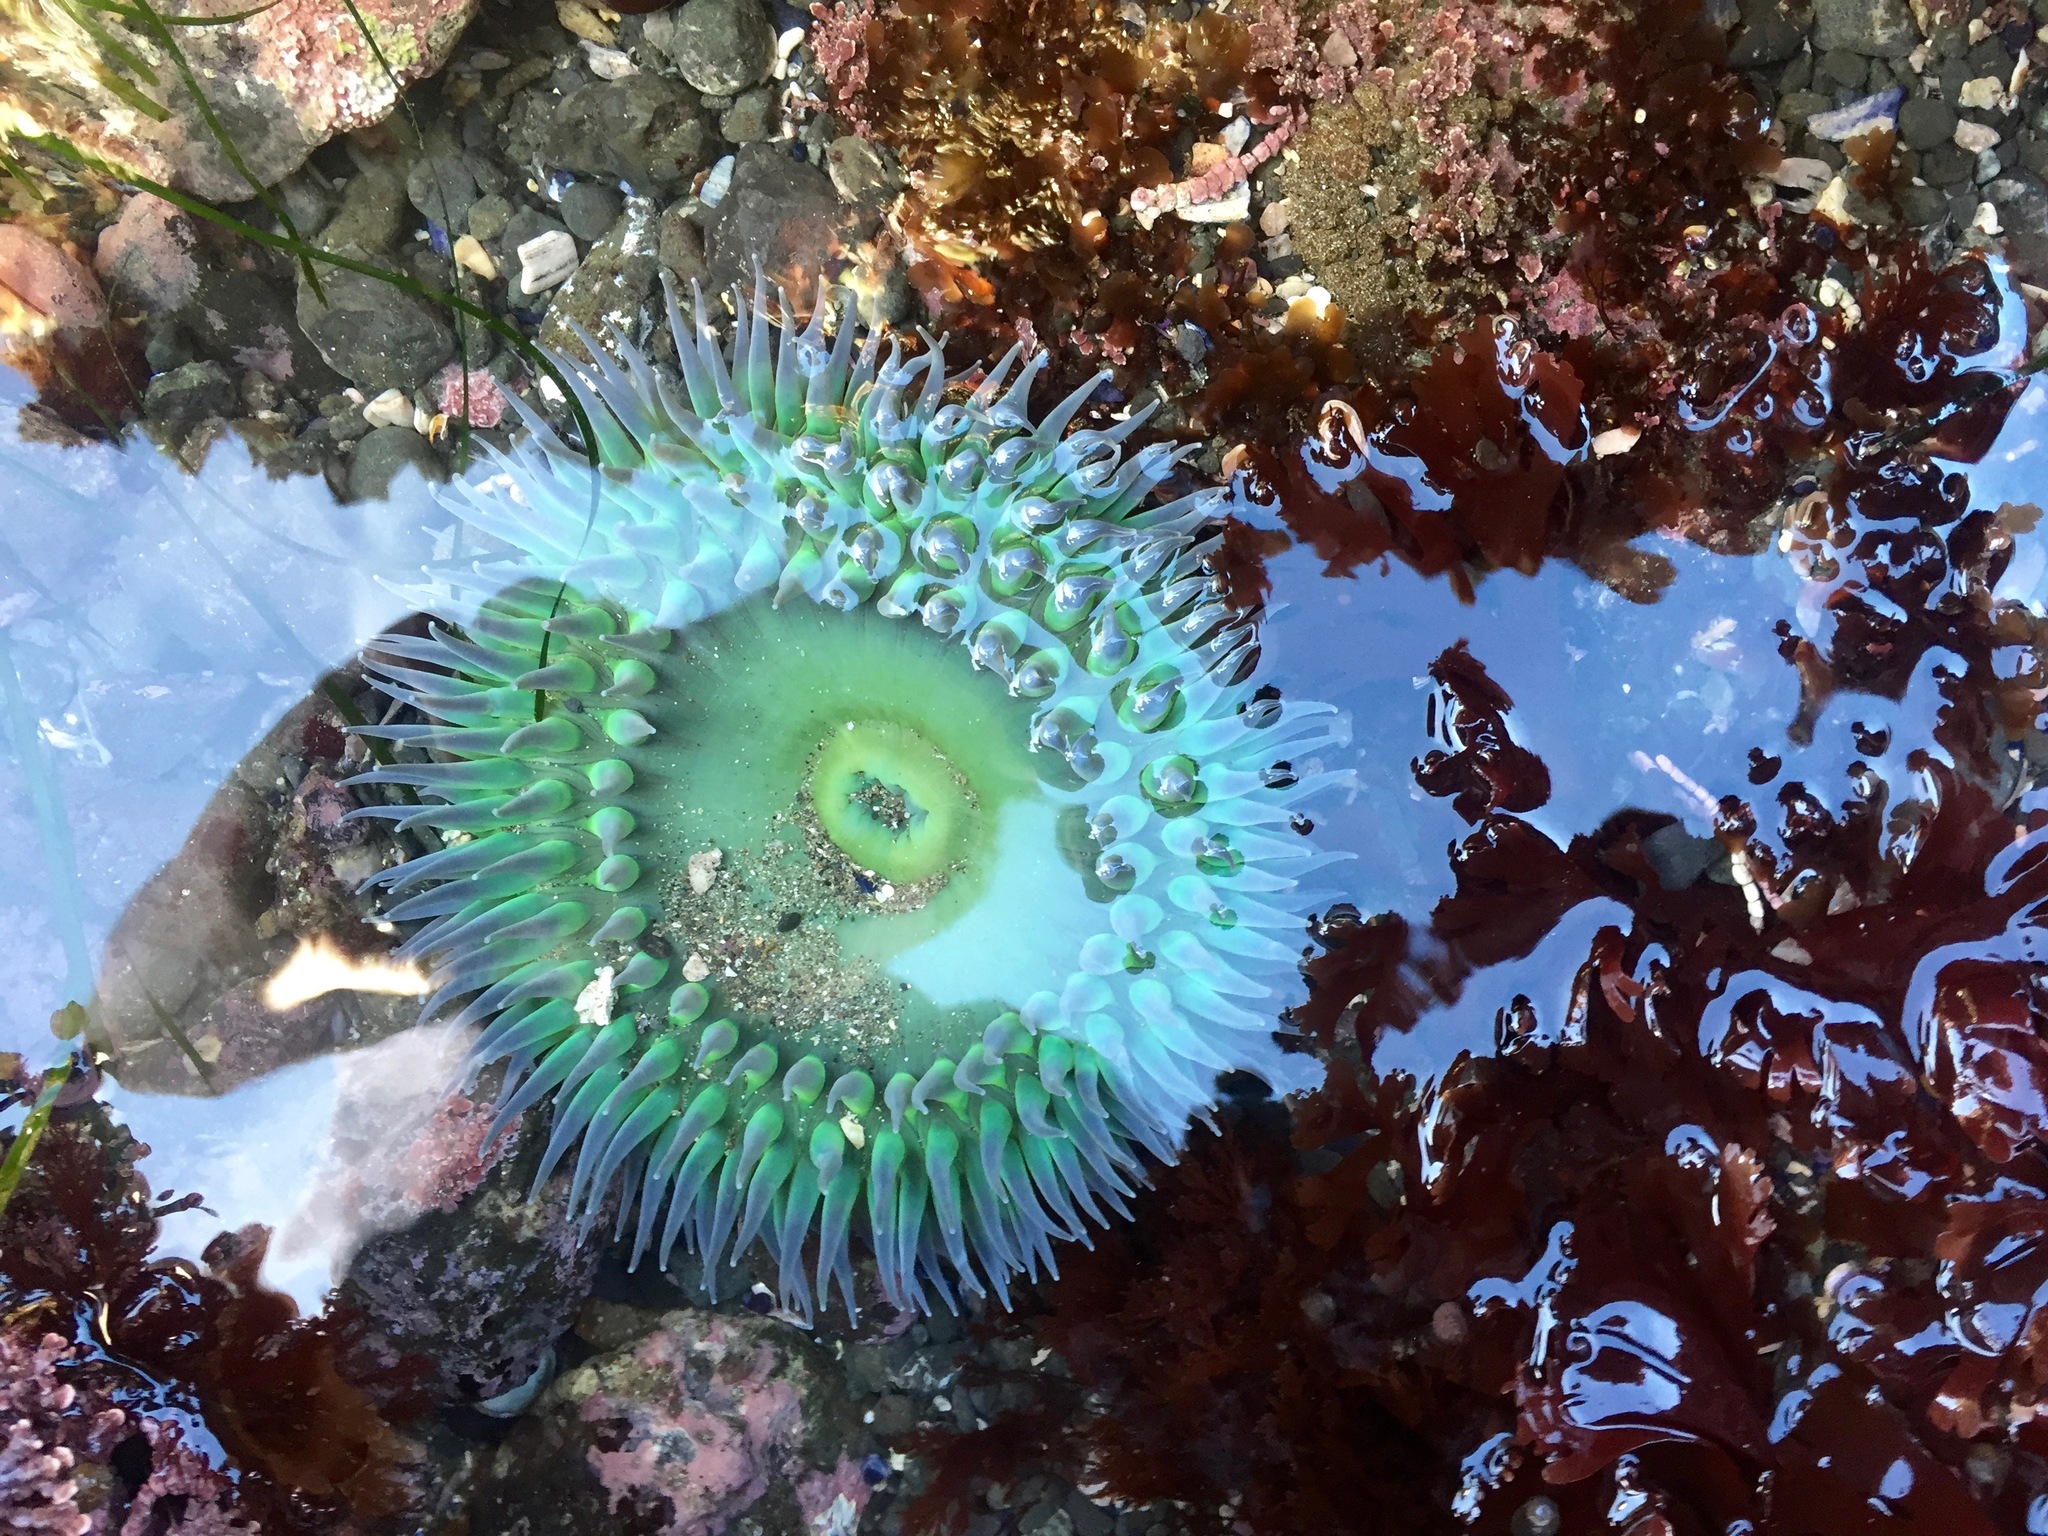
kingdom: Animalia
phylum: Cnidaria
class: Anthozoa
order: Actiniaria
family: Actiniidae
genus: Anthopleura
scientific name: Anthopleura xanthogrammica
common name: Giant green anemone
